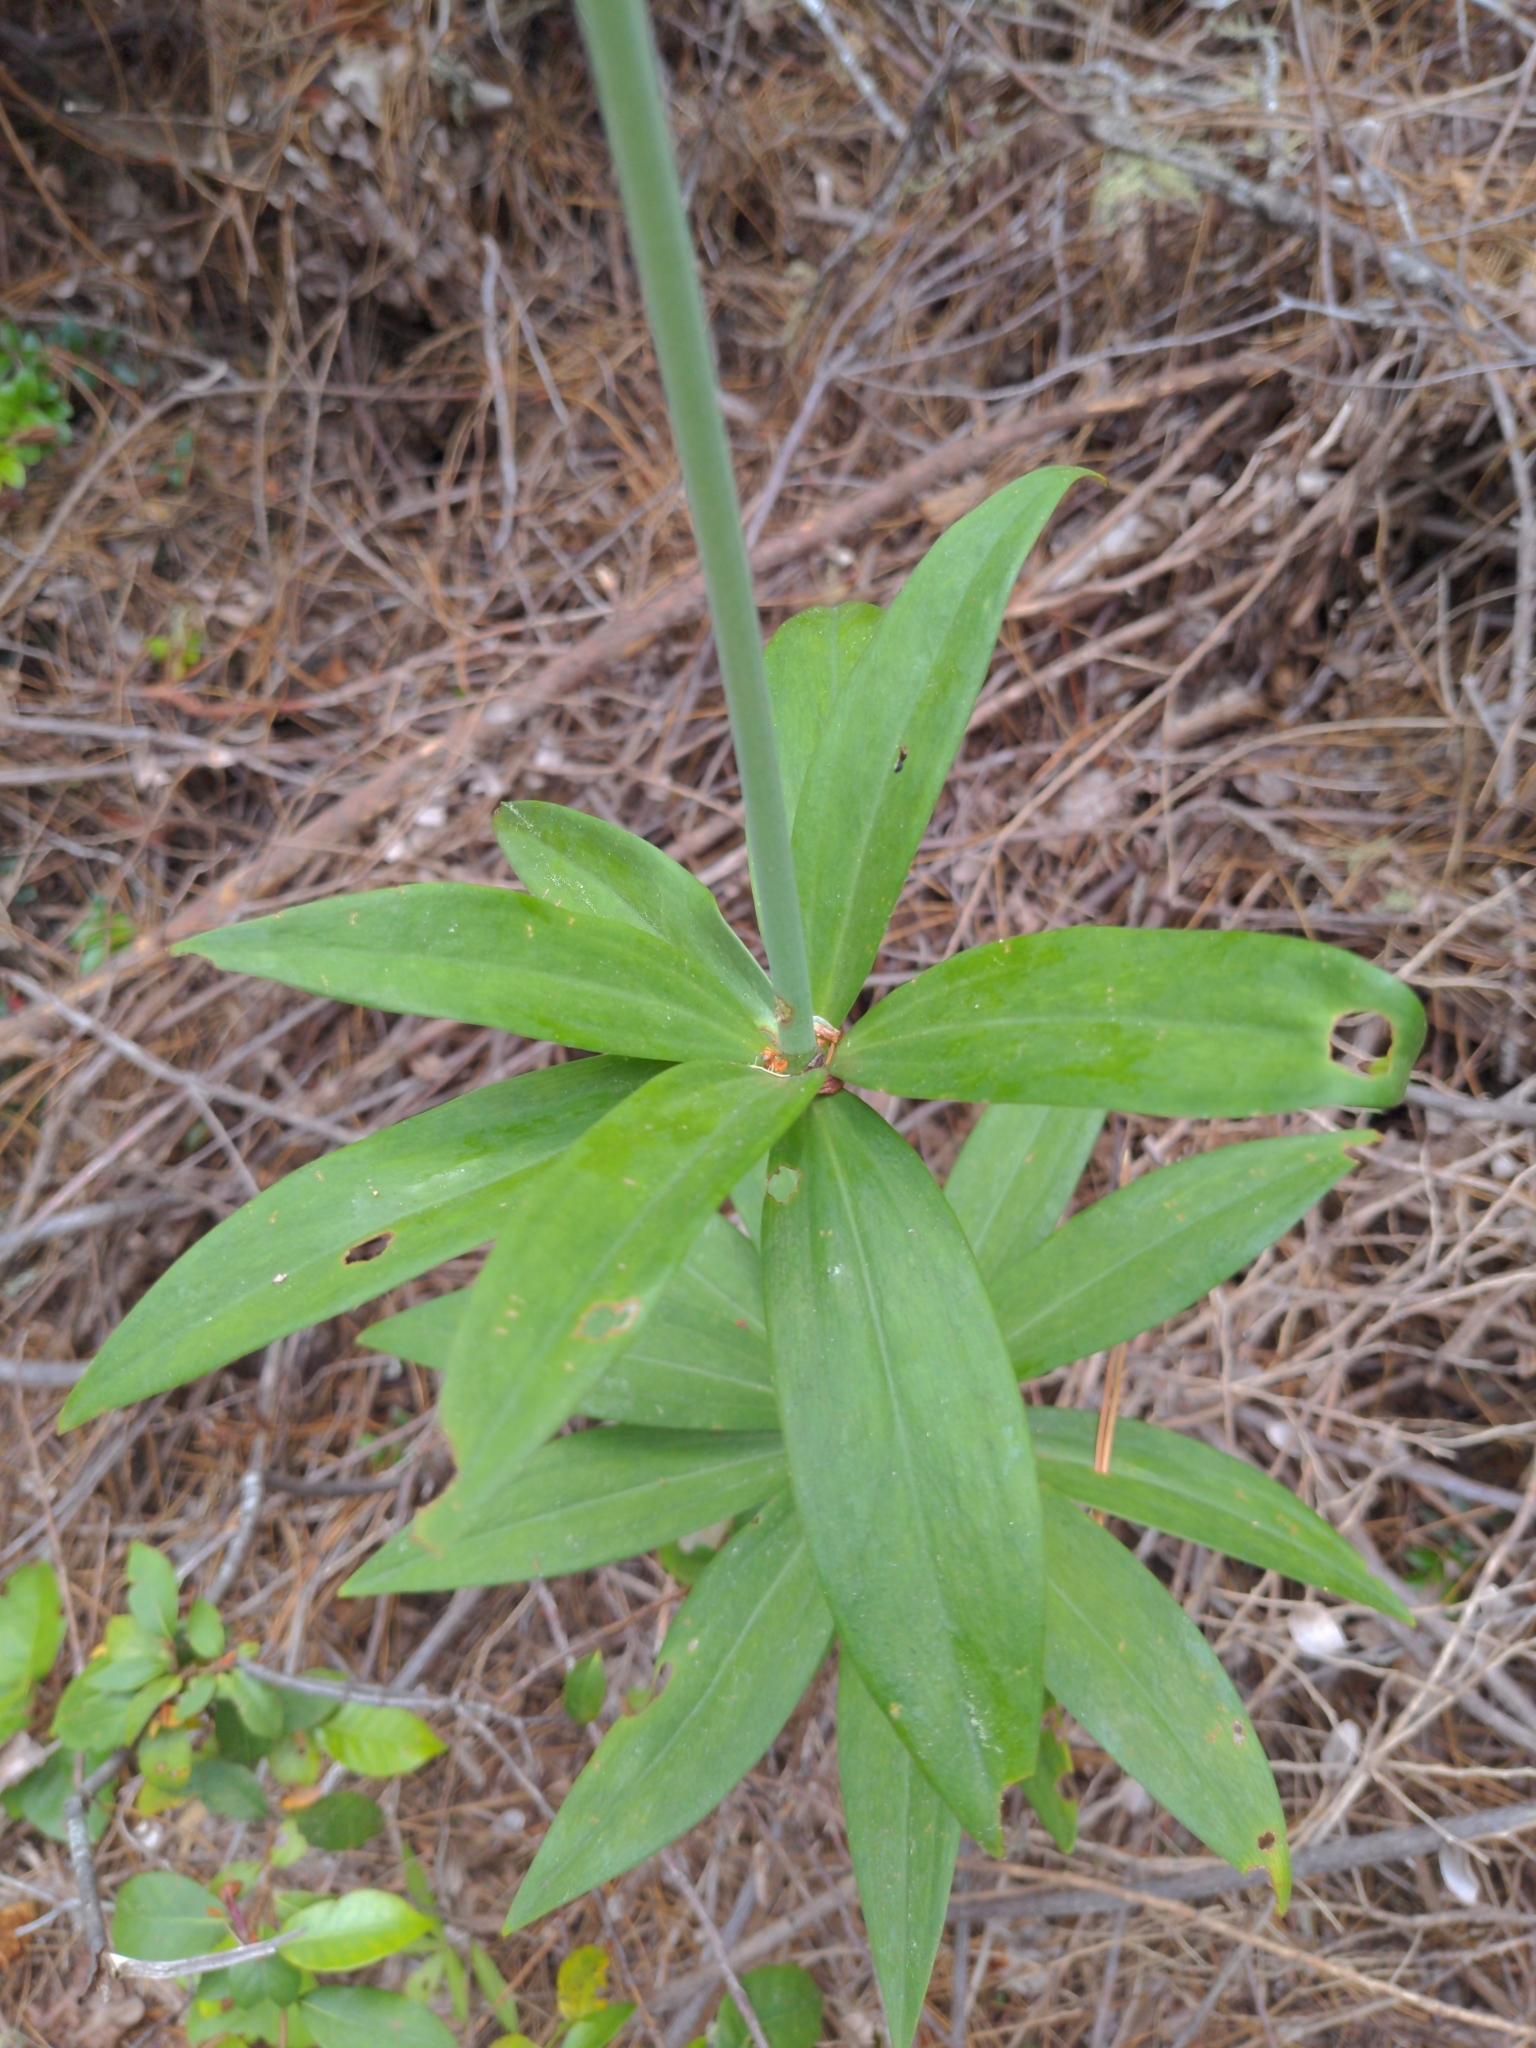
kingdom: Plantae
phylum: Tracheophyta
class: Liliopsida
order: Liliales
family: Liliaceae
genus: Lilium
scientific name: Lilium maritimum
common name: Coastal lily
